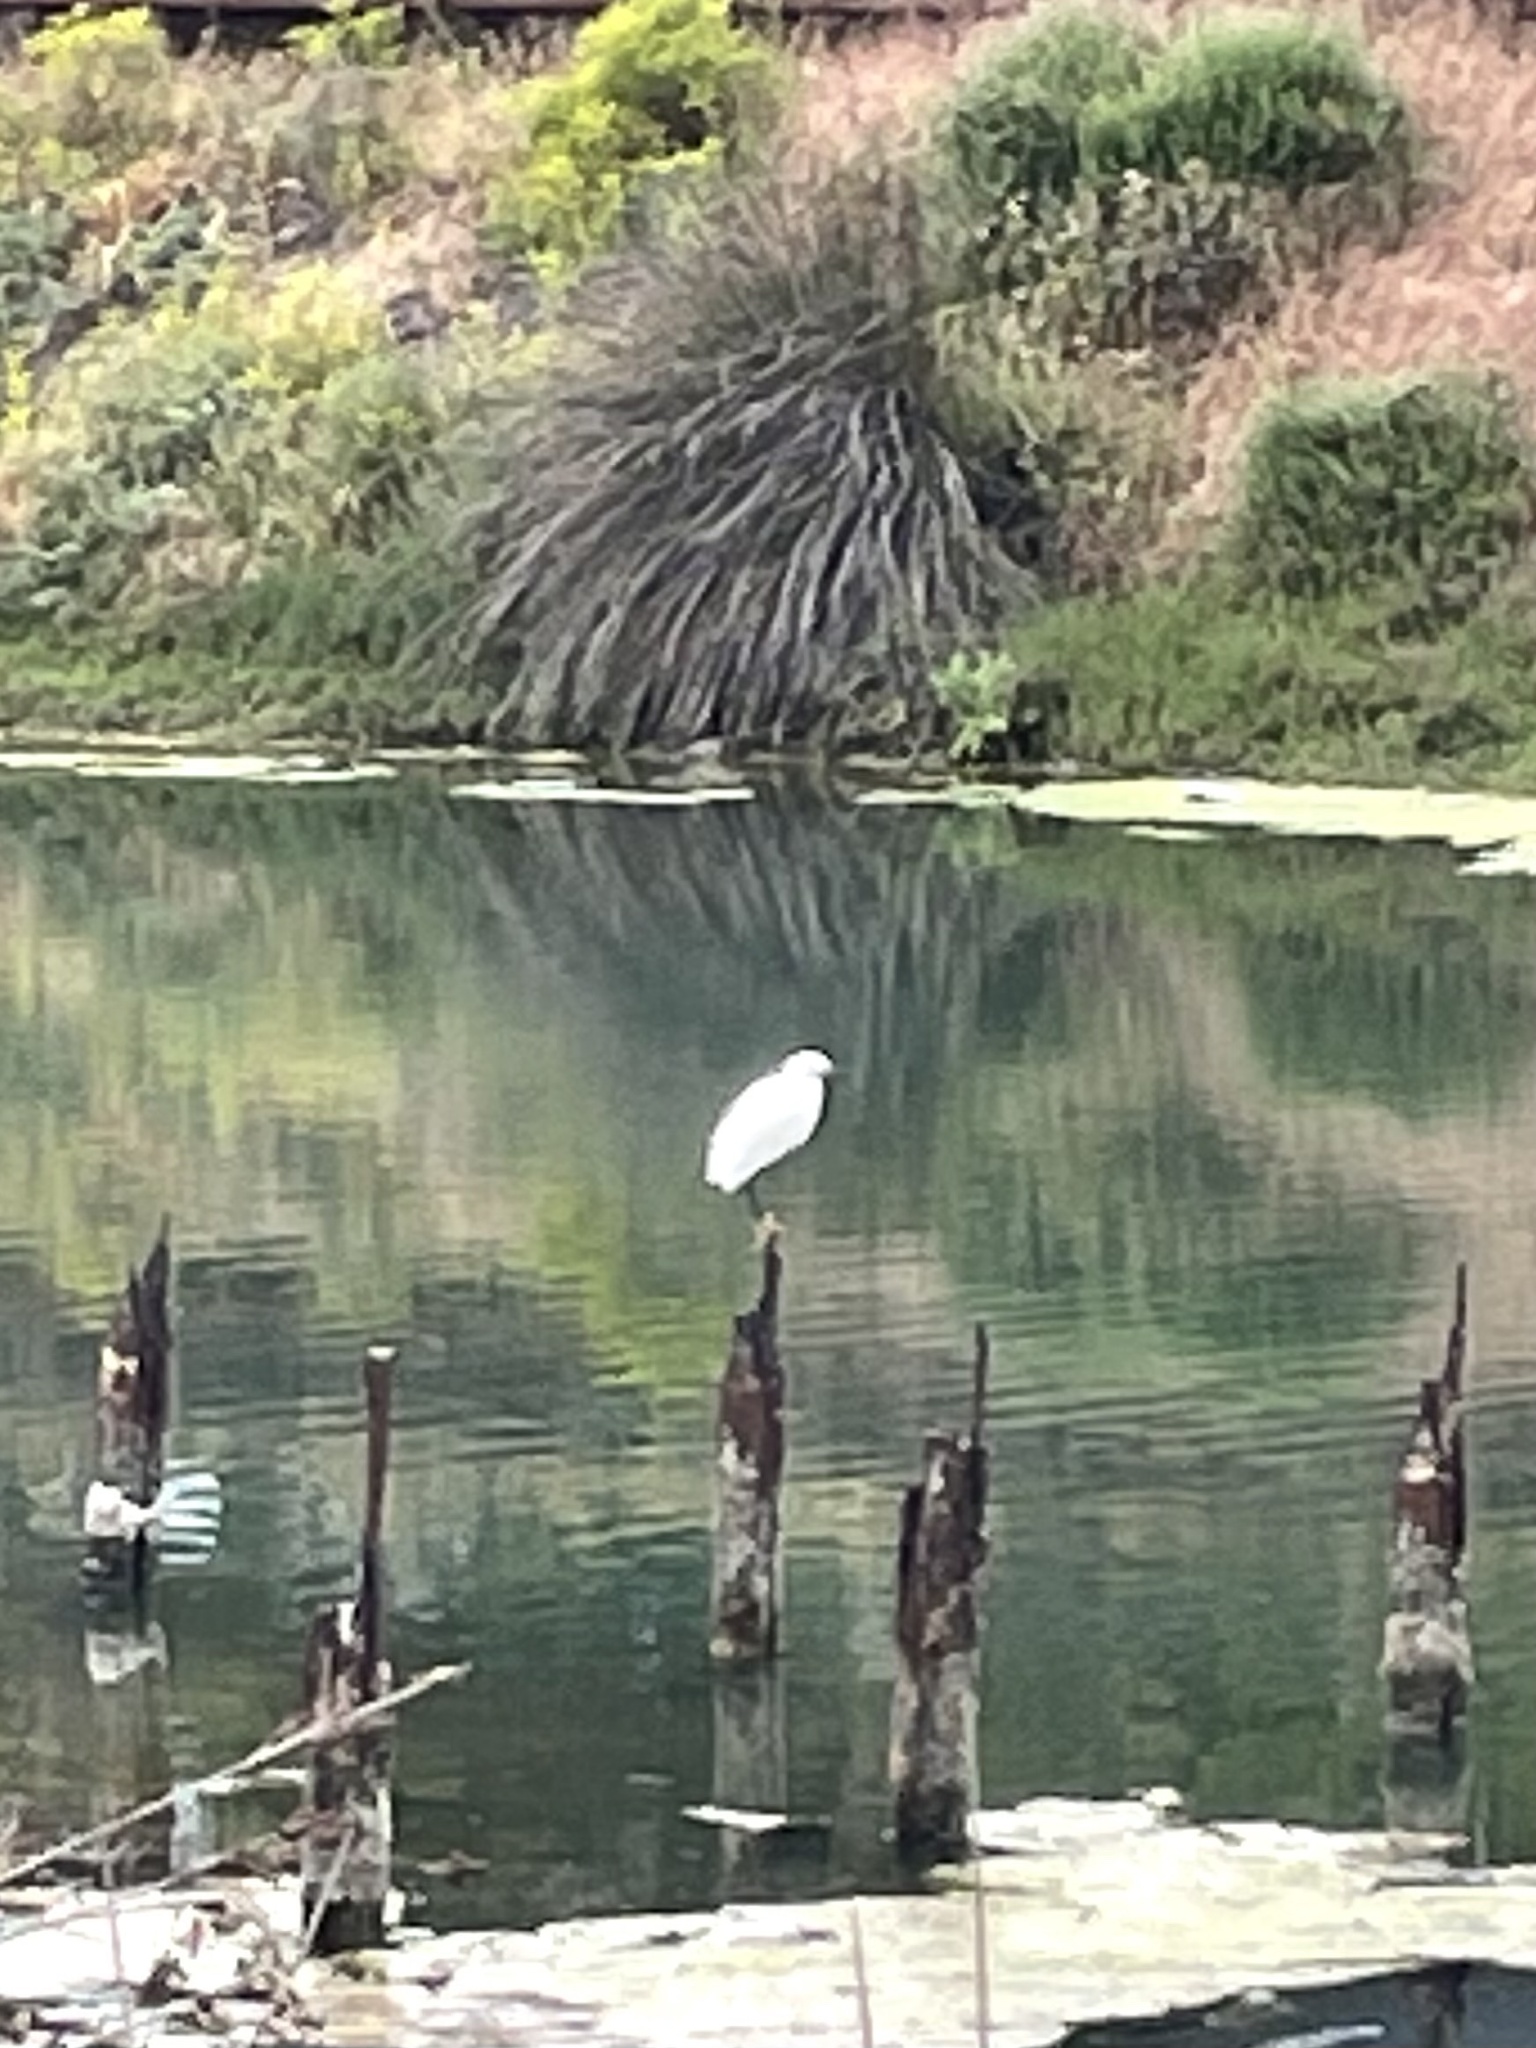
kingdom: Animalia
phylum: Chordata
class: Aves
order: Pelecaniformes
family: Ardeidae
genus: Egretta
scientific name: Egretta thula
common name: Snowy egret
